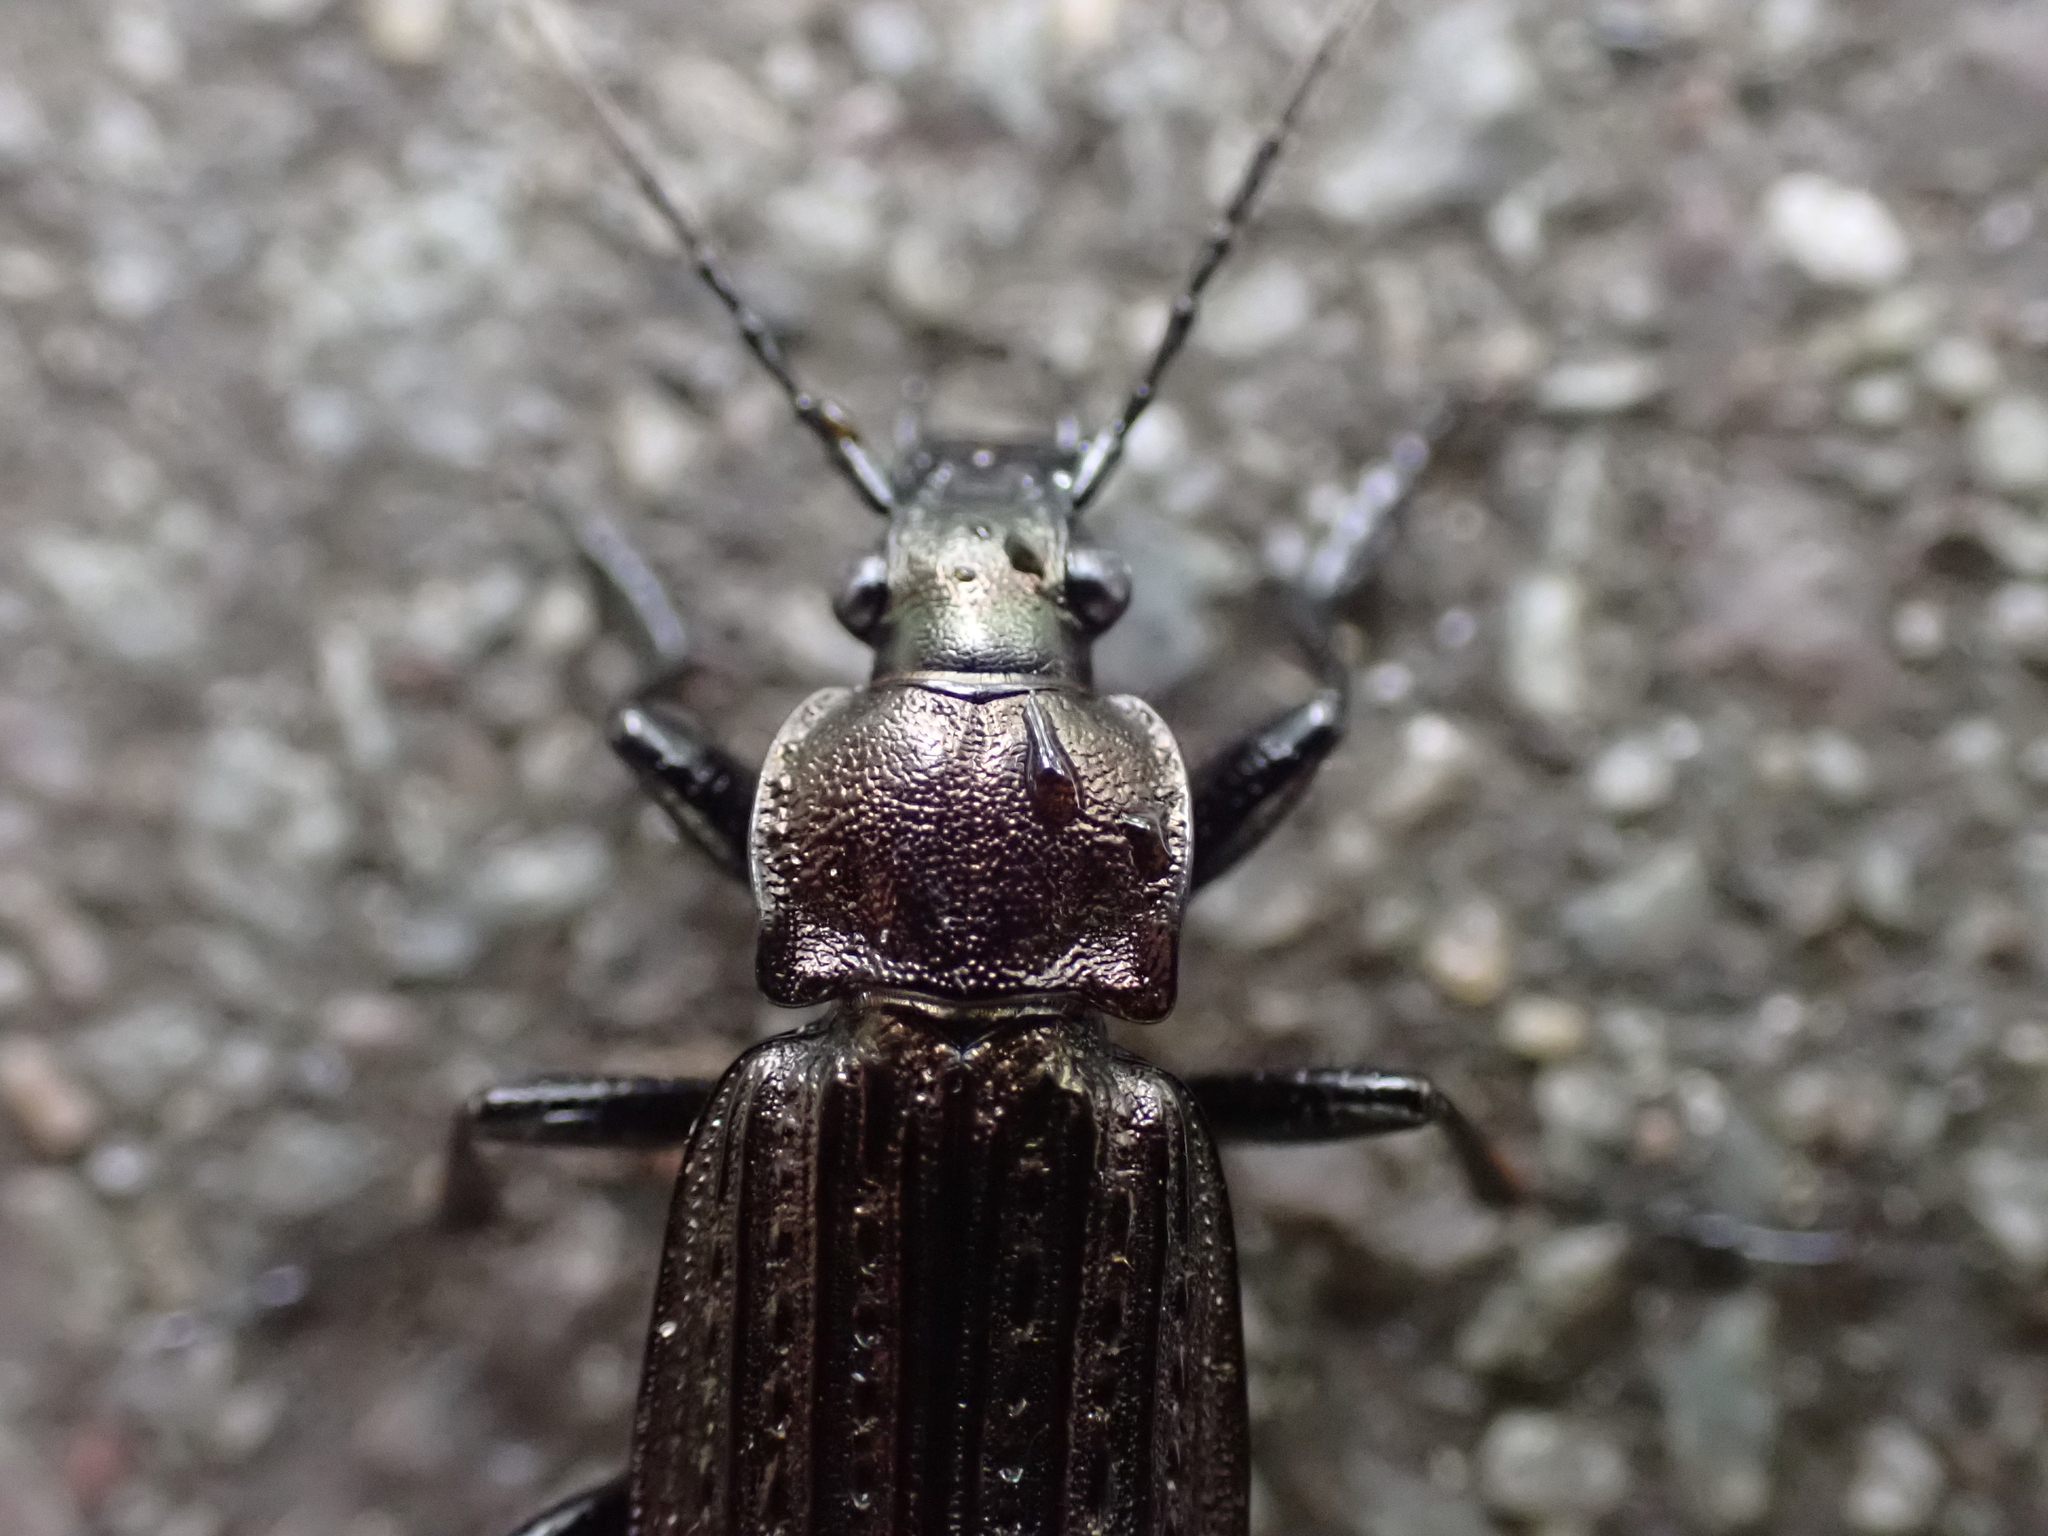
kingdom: Animalia
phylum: Arthropoda
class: Insecta
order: Coleoptera
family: Carabidae
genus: Carabus
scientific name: Carabus granulatus
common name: Granulate ground beetle
